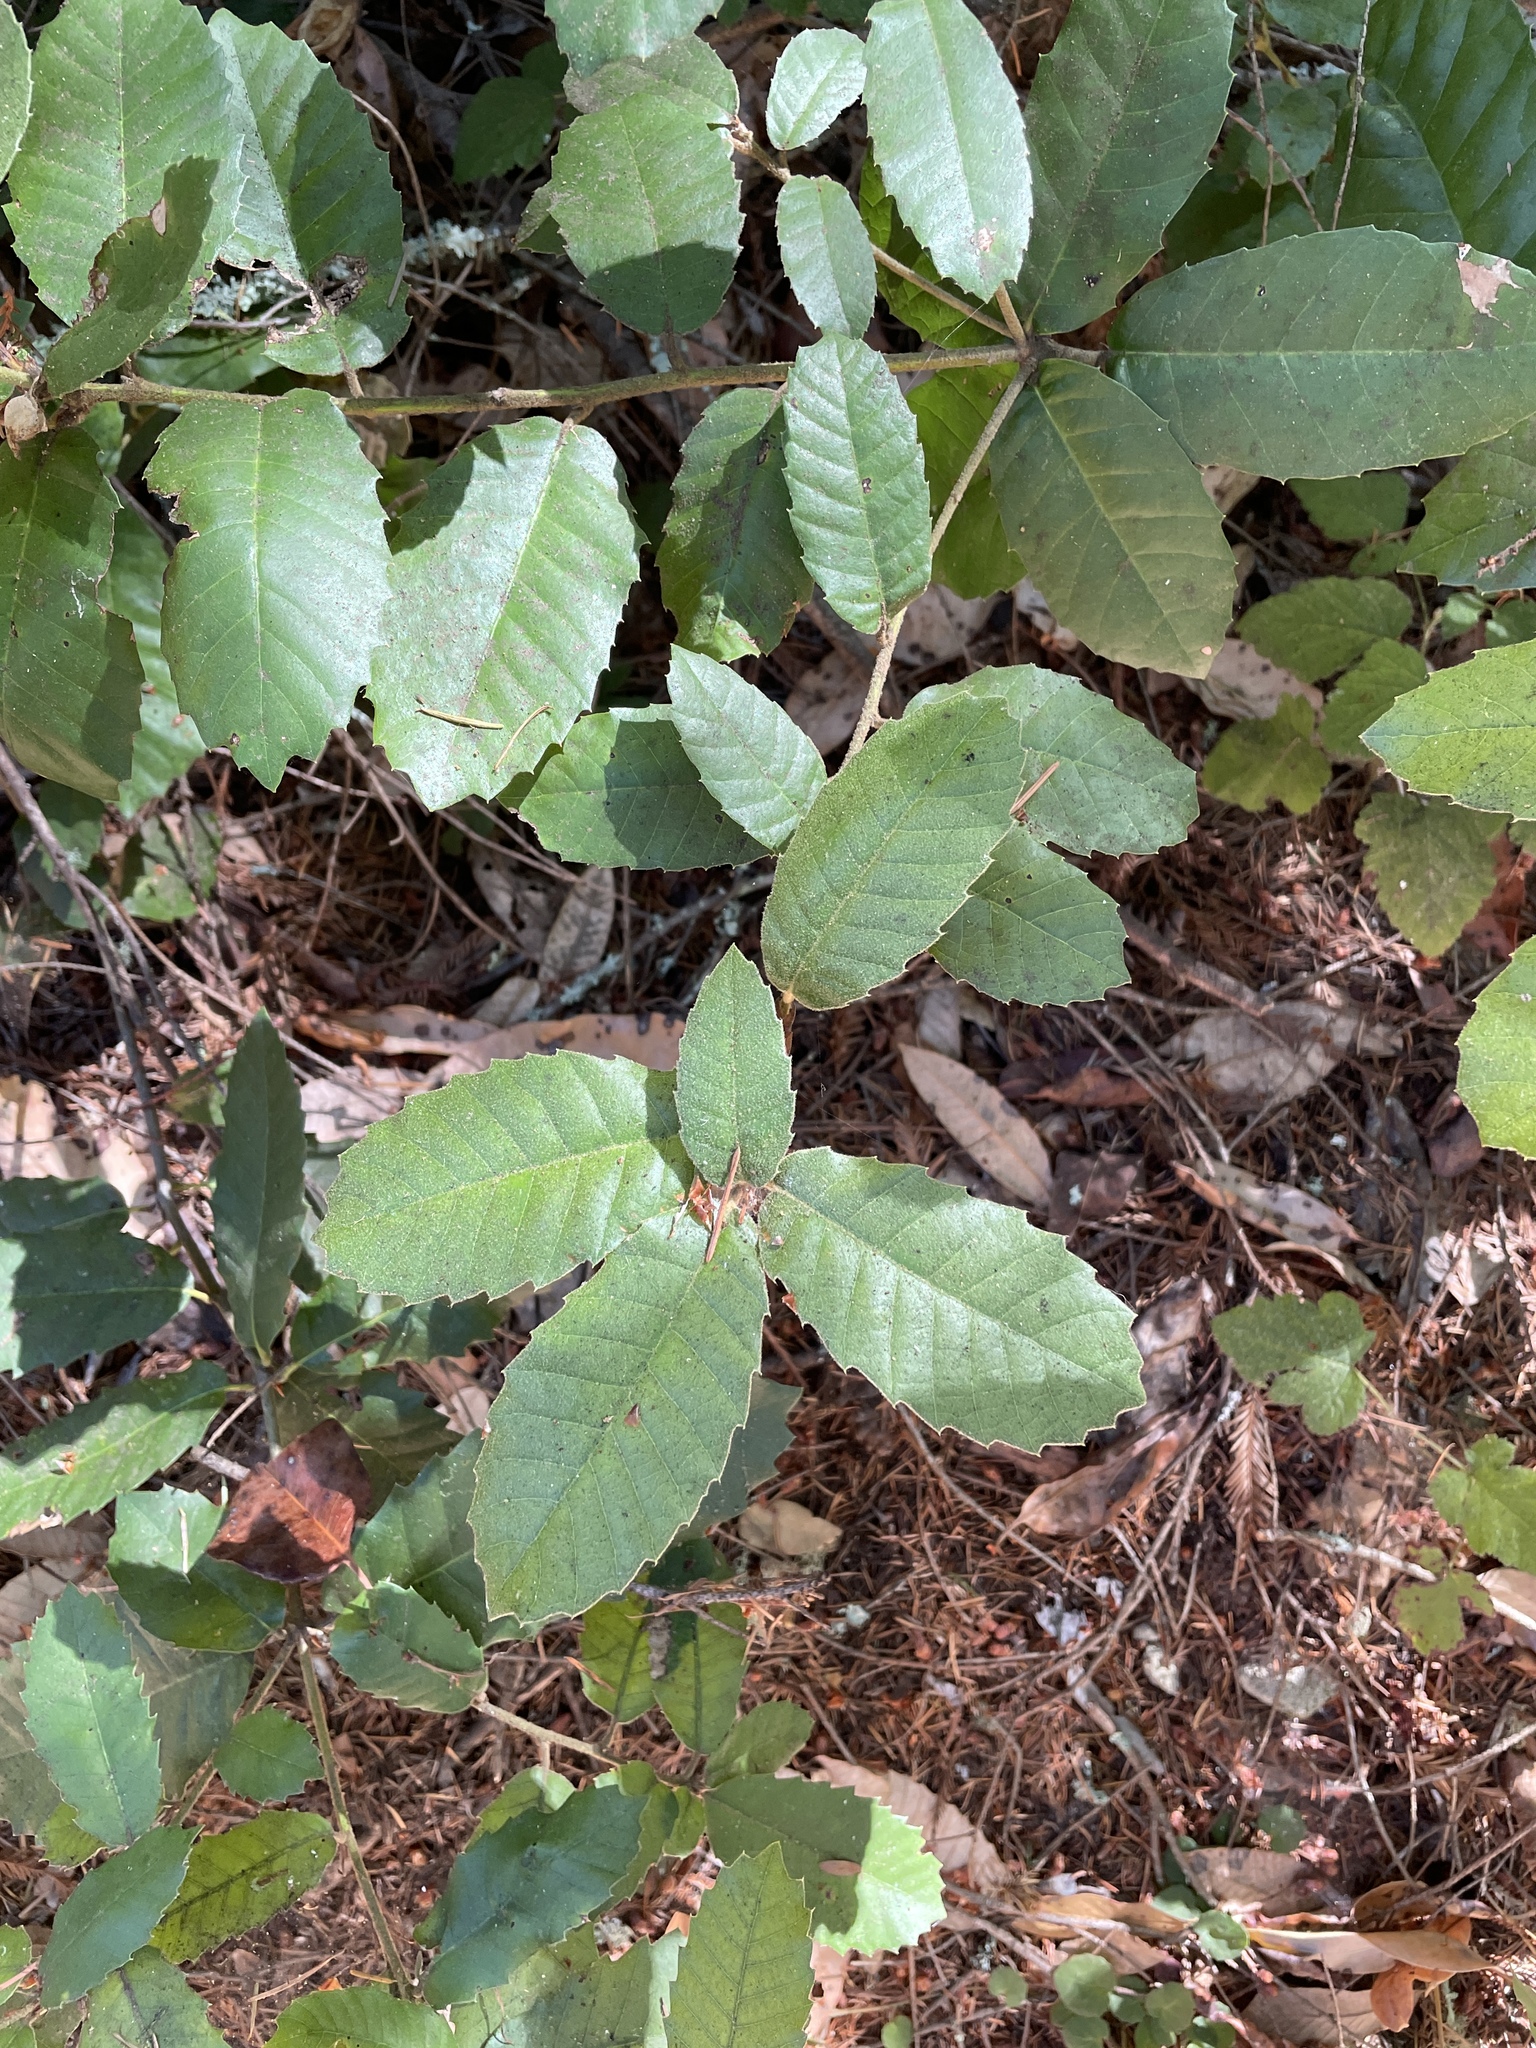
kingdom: Plantae
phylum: Tracheophyta
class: Magnoliopsida
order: Fagales
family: Fagaceae
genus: Notholithocarpus
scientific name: Notholithocarpus densiflorus
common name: Tan bark oak
